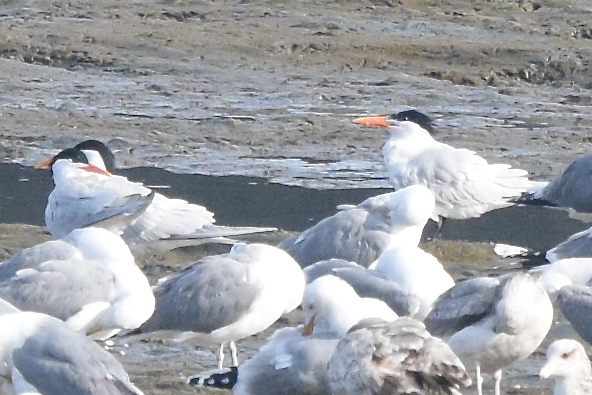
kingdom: Animalia
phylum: Chordata
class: Aves
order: Charadriiformes
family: Laridae
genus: Thalasseus
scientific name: Thalasseus elegans
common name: Elegant tern
